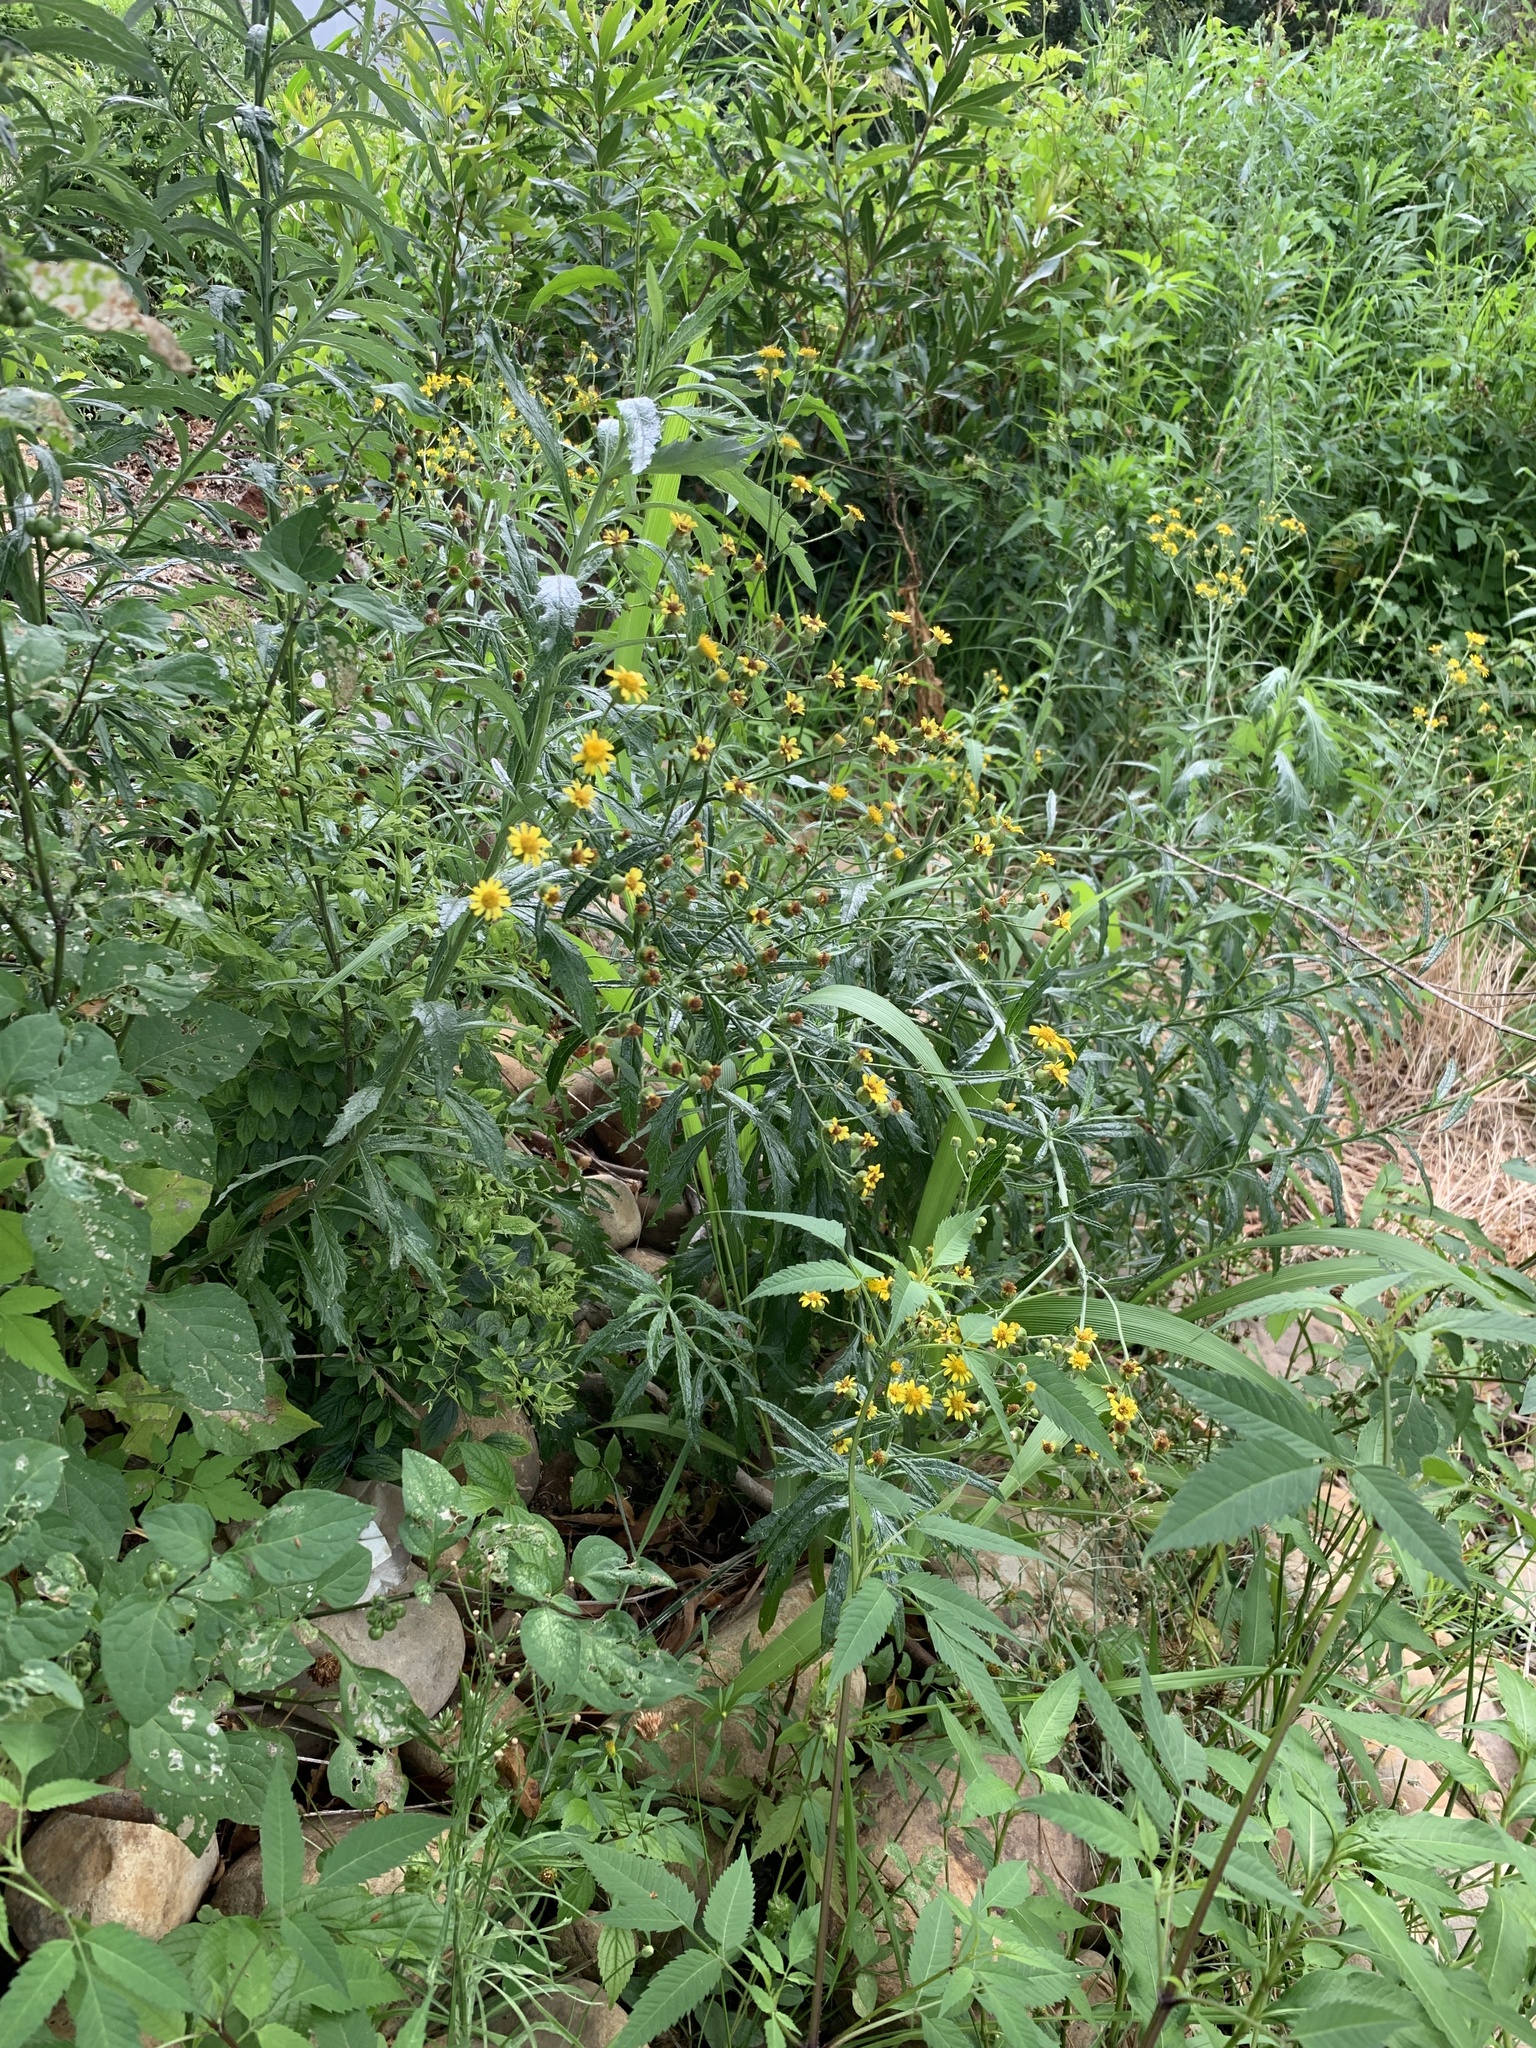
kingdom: Plantae
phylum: Tracheophyta
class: Magnoliopsida
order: Asterales
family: Asteraceae
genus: Senecio
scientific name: Senecio pterophorus
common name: Shoddy ragwort
